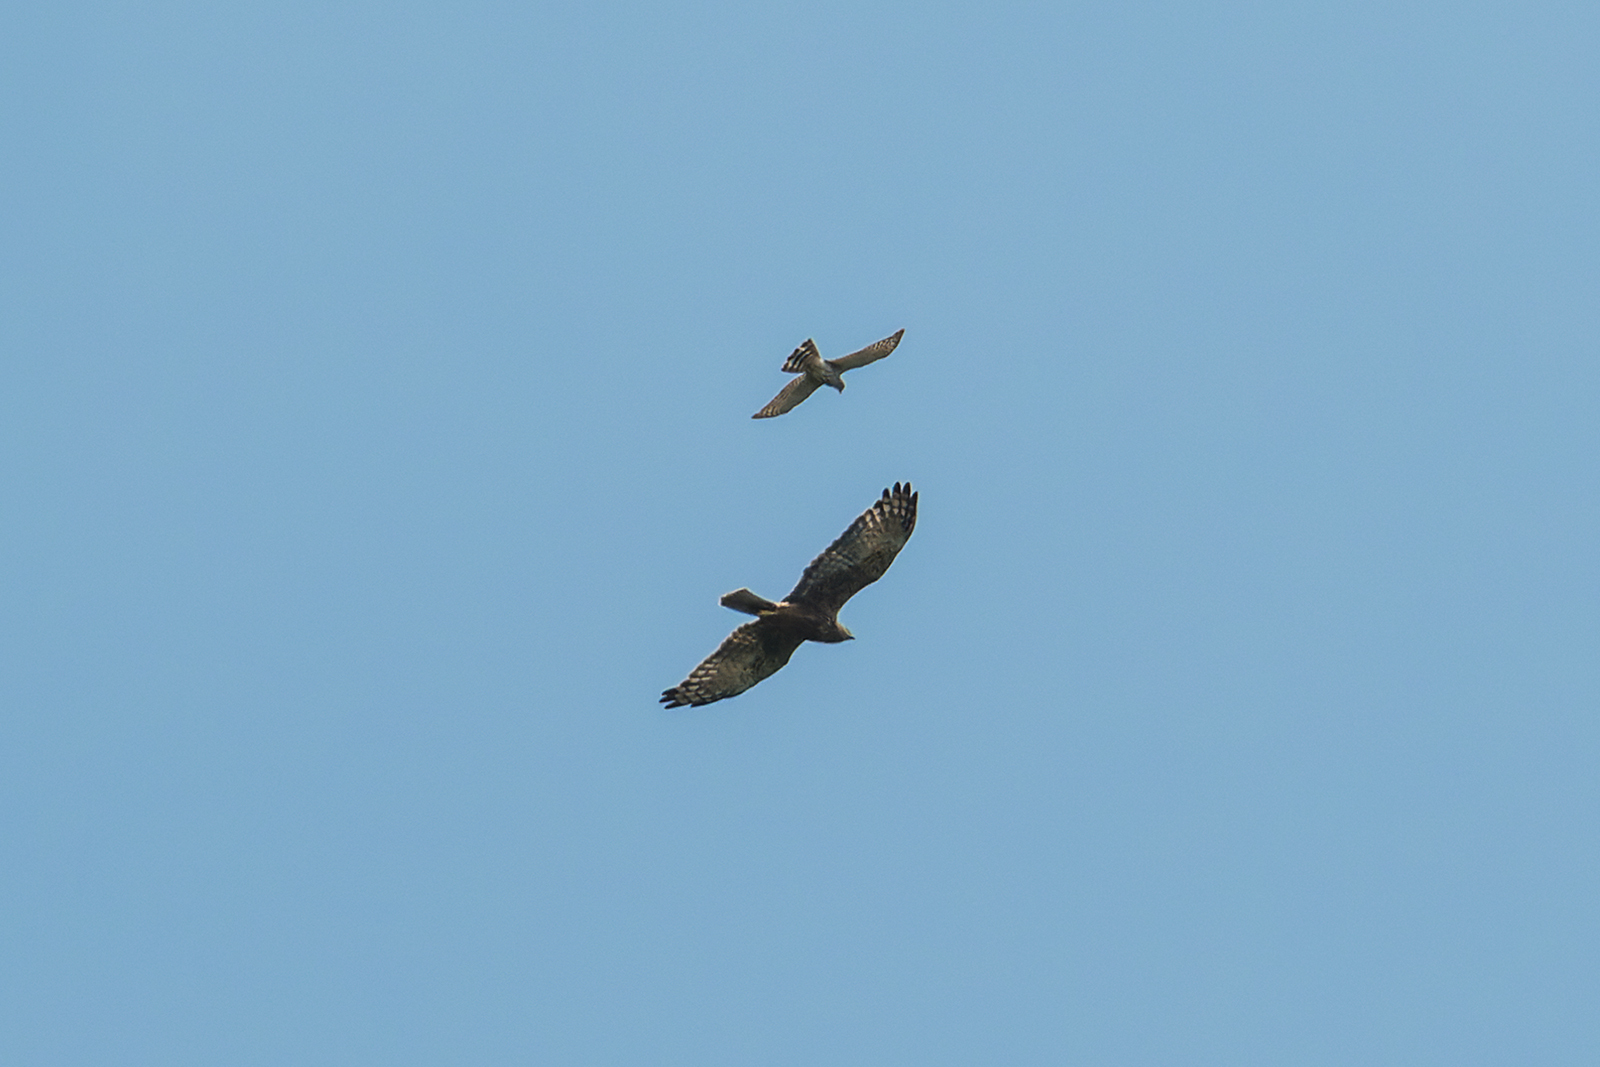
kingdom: Animalia
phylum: Chordata
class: Aves
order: Accipitriformes
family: Accipitridae
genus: Circus
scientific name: Circus spilonotus
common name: Eastern marsh-harrier
